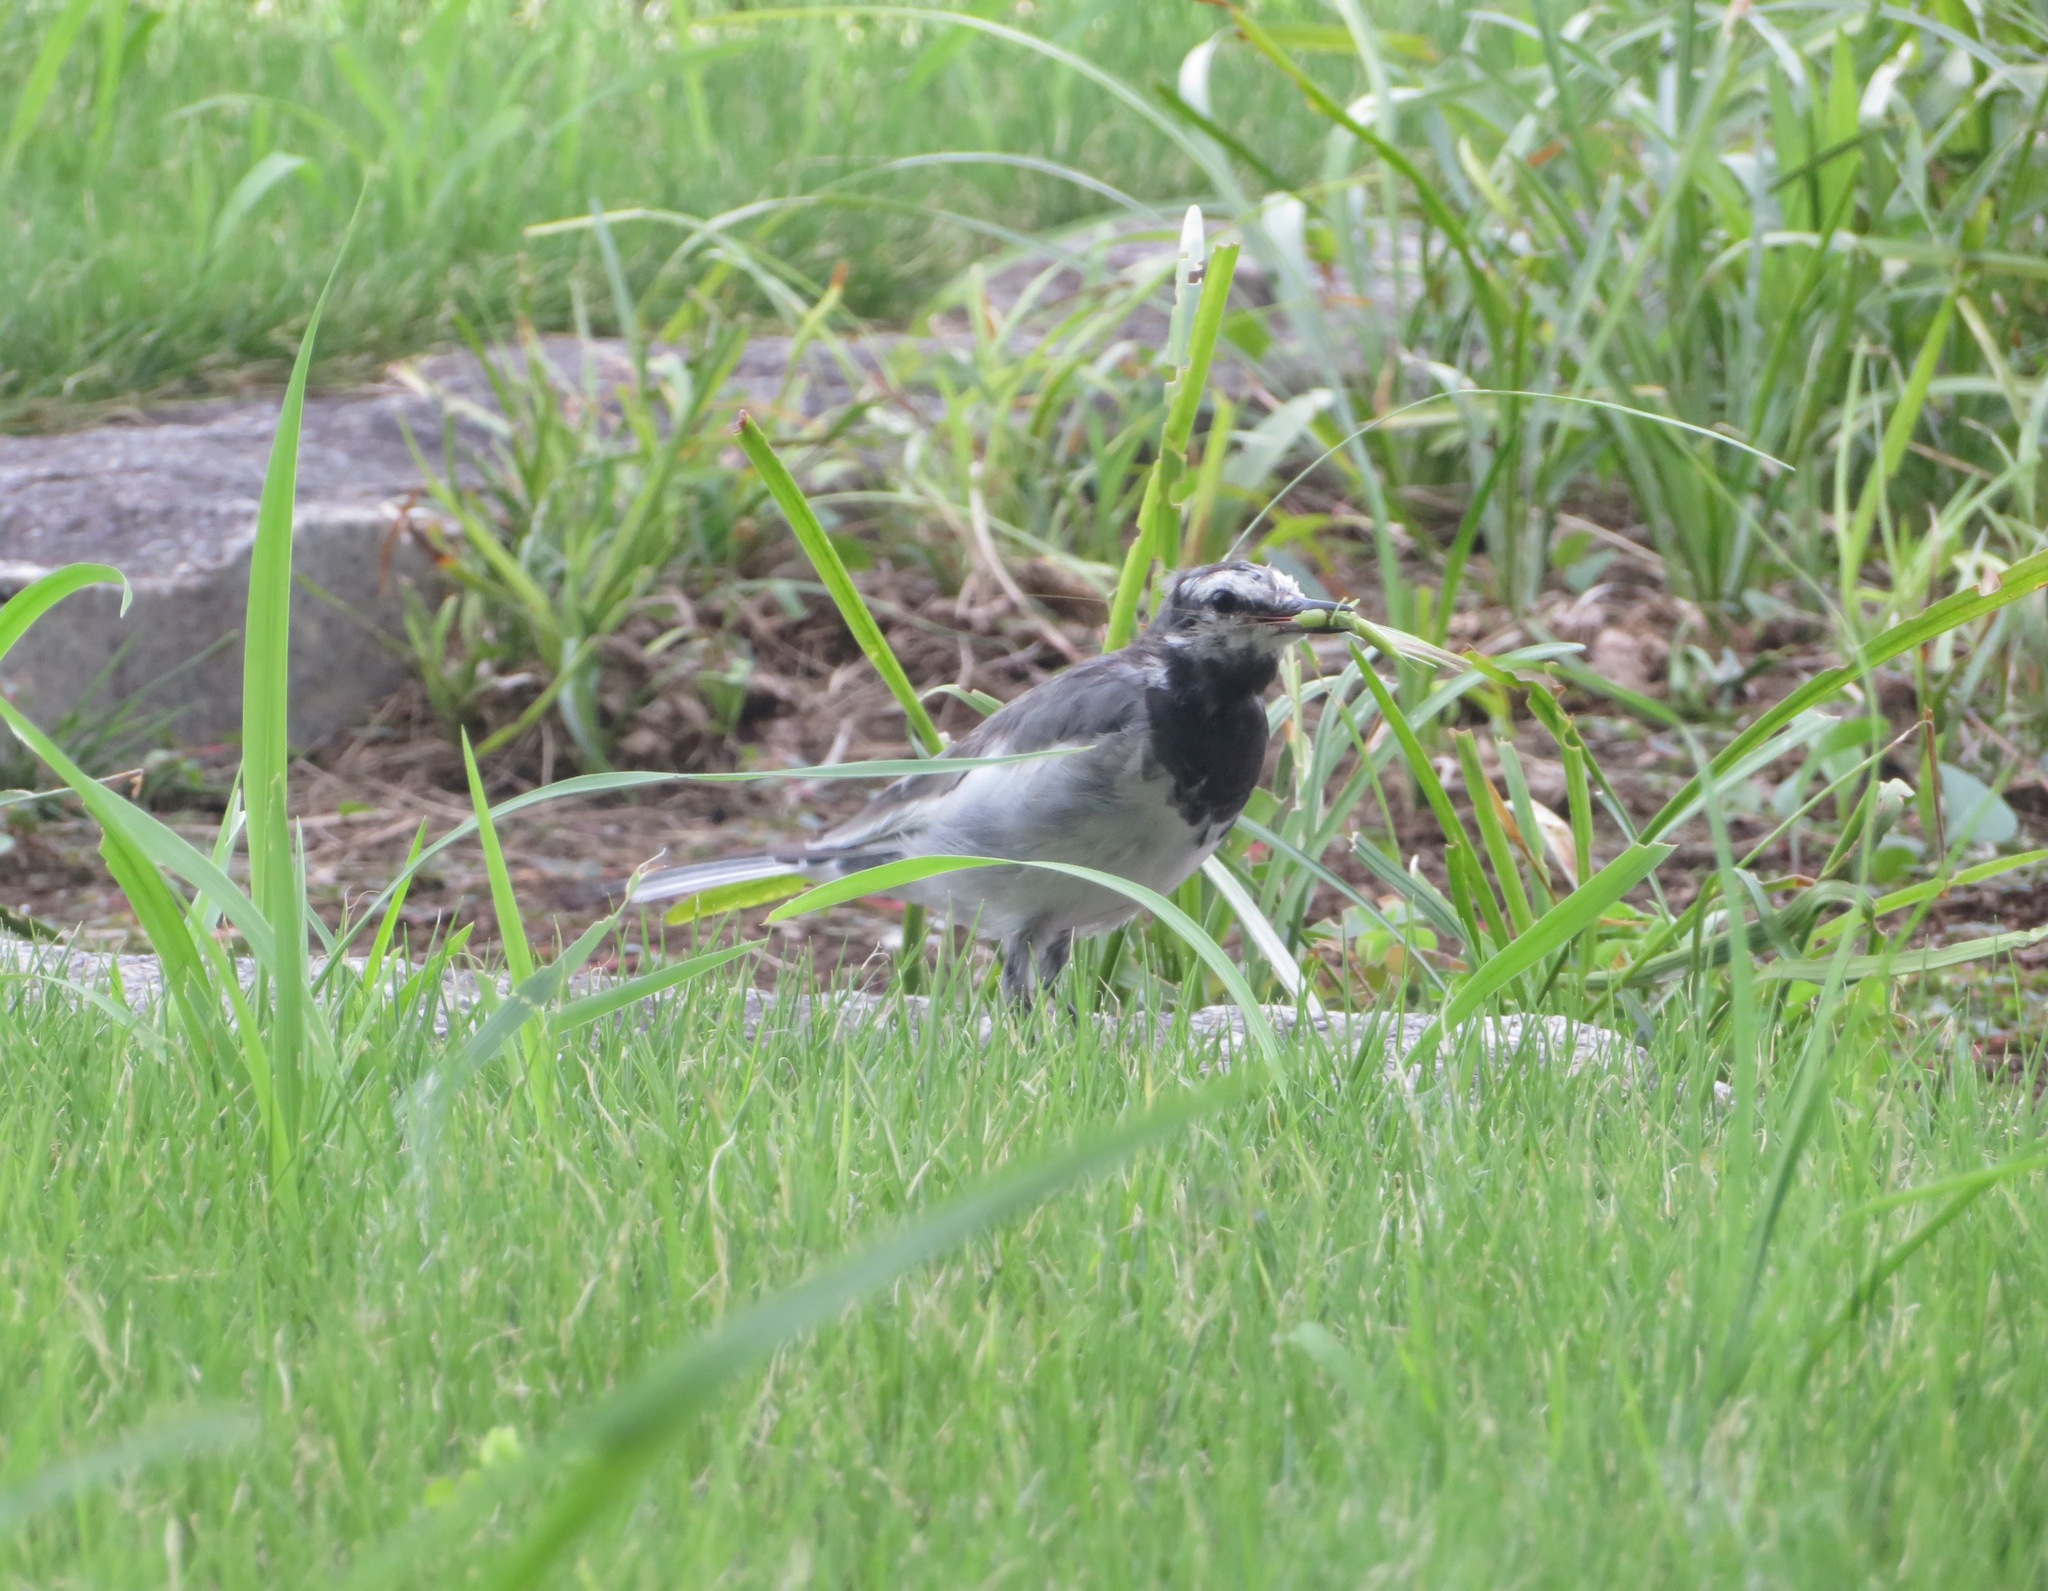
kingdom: Animalia
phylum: Chordata
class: Aves
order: Passeriformes
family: Motacillidae
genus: Motacilla
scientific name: Motacilla alba
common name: White wagtail
